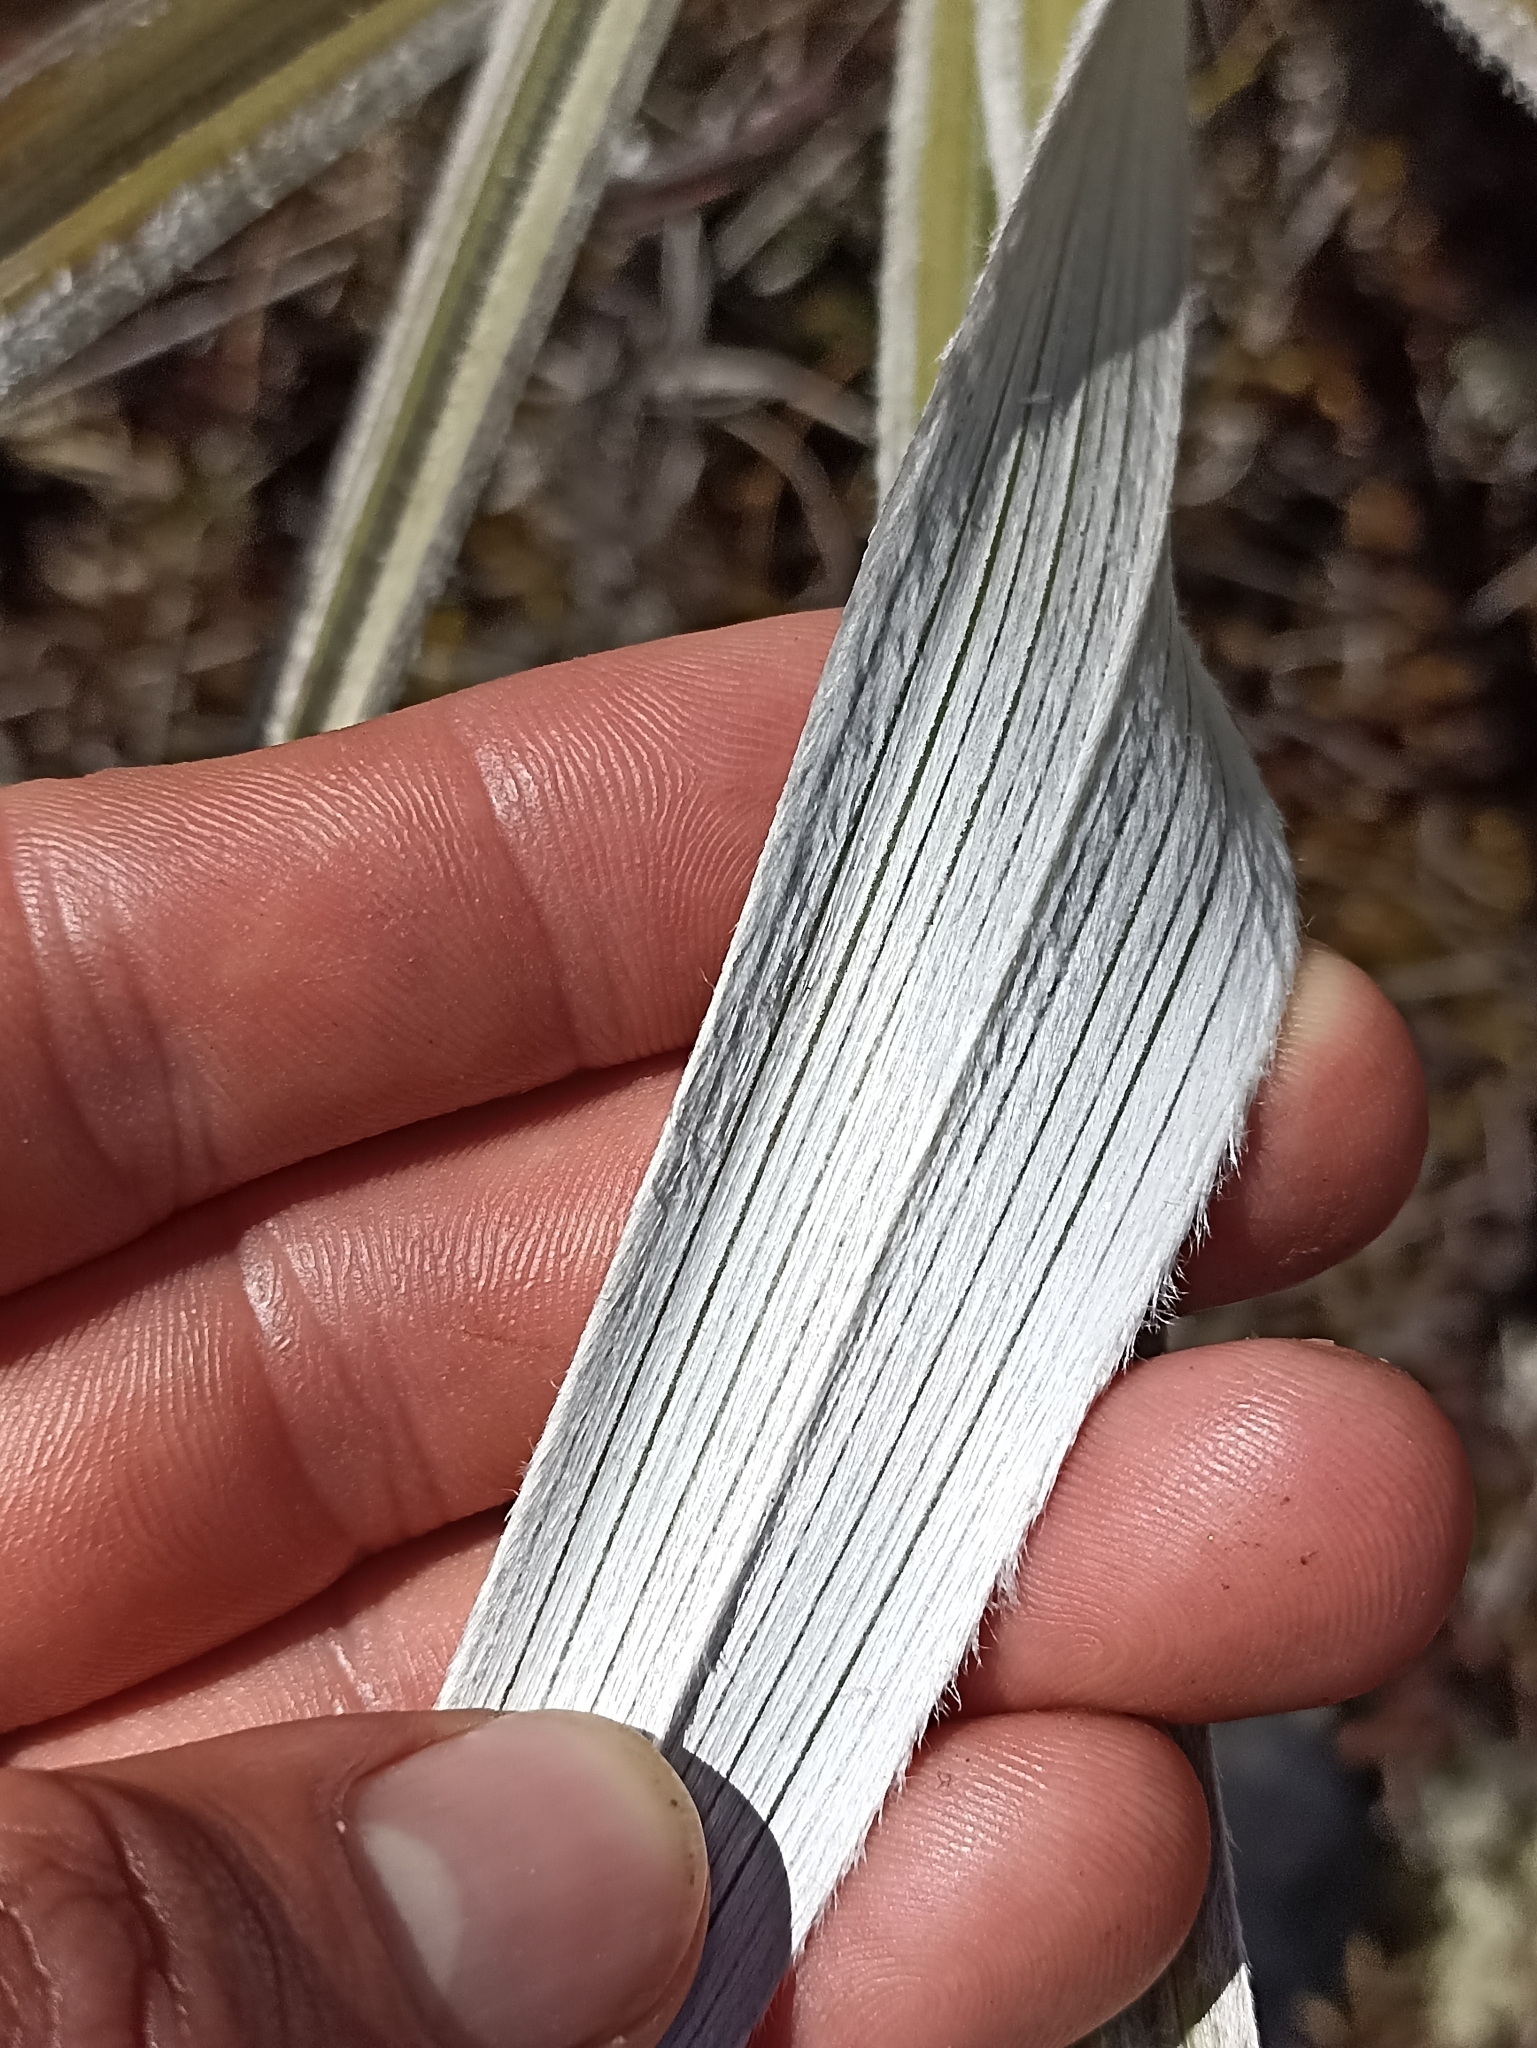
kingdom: Plantae
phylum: Tracheophyta
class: Liliopsida
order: Asparagales
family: Asteliaceae
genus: Astelia
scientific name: Astelia nervosa
